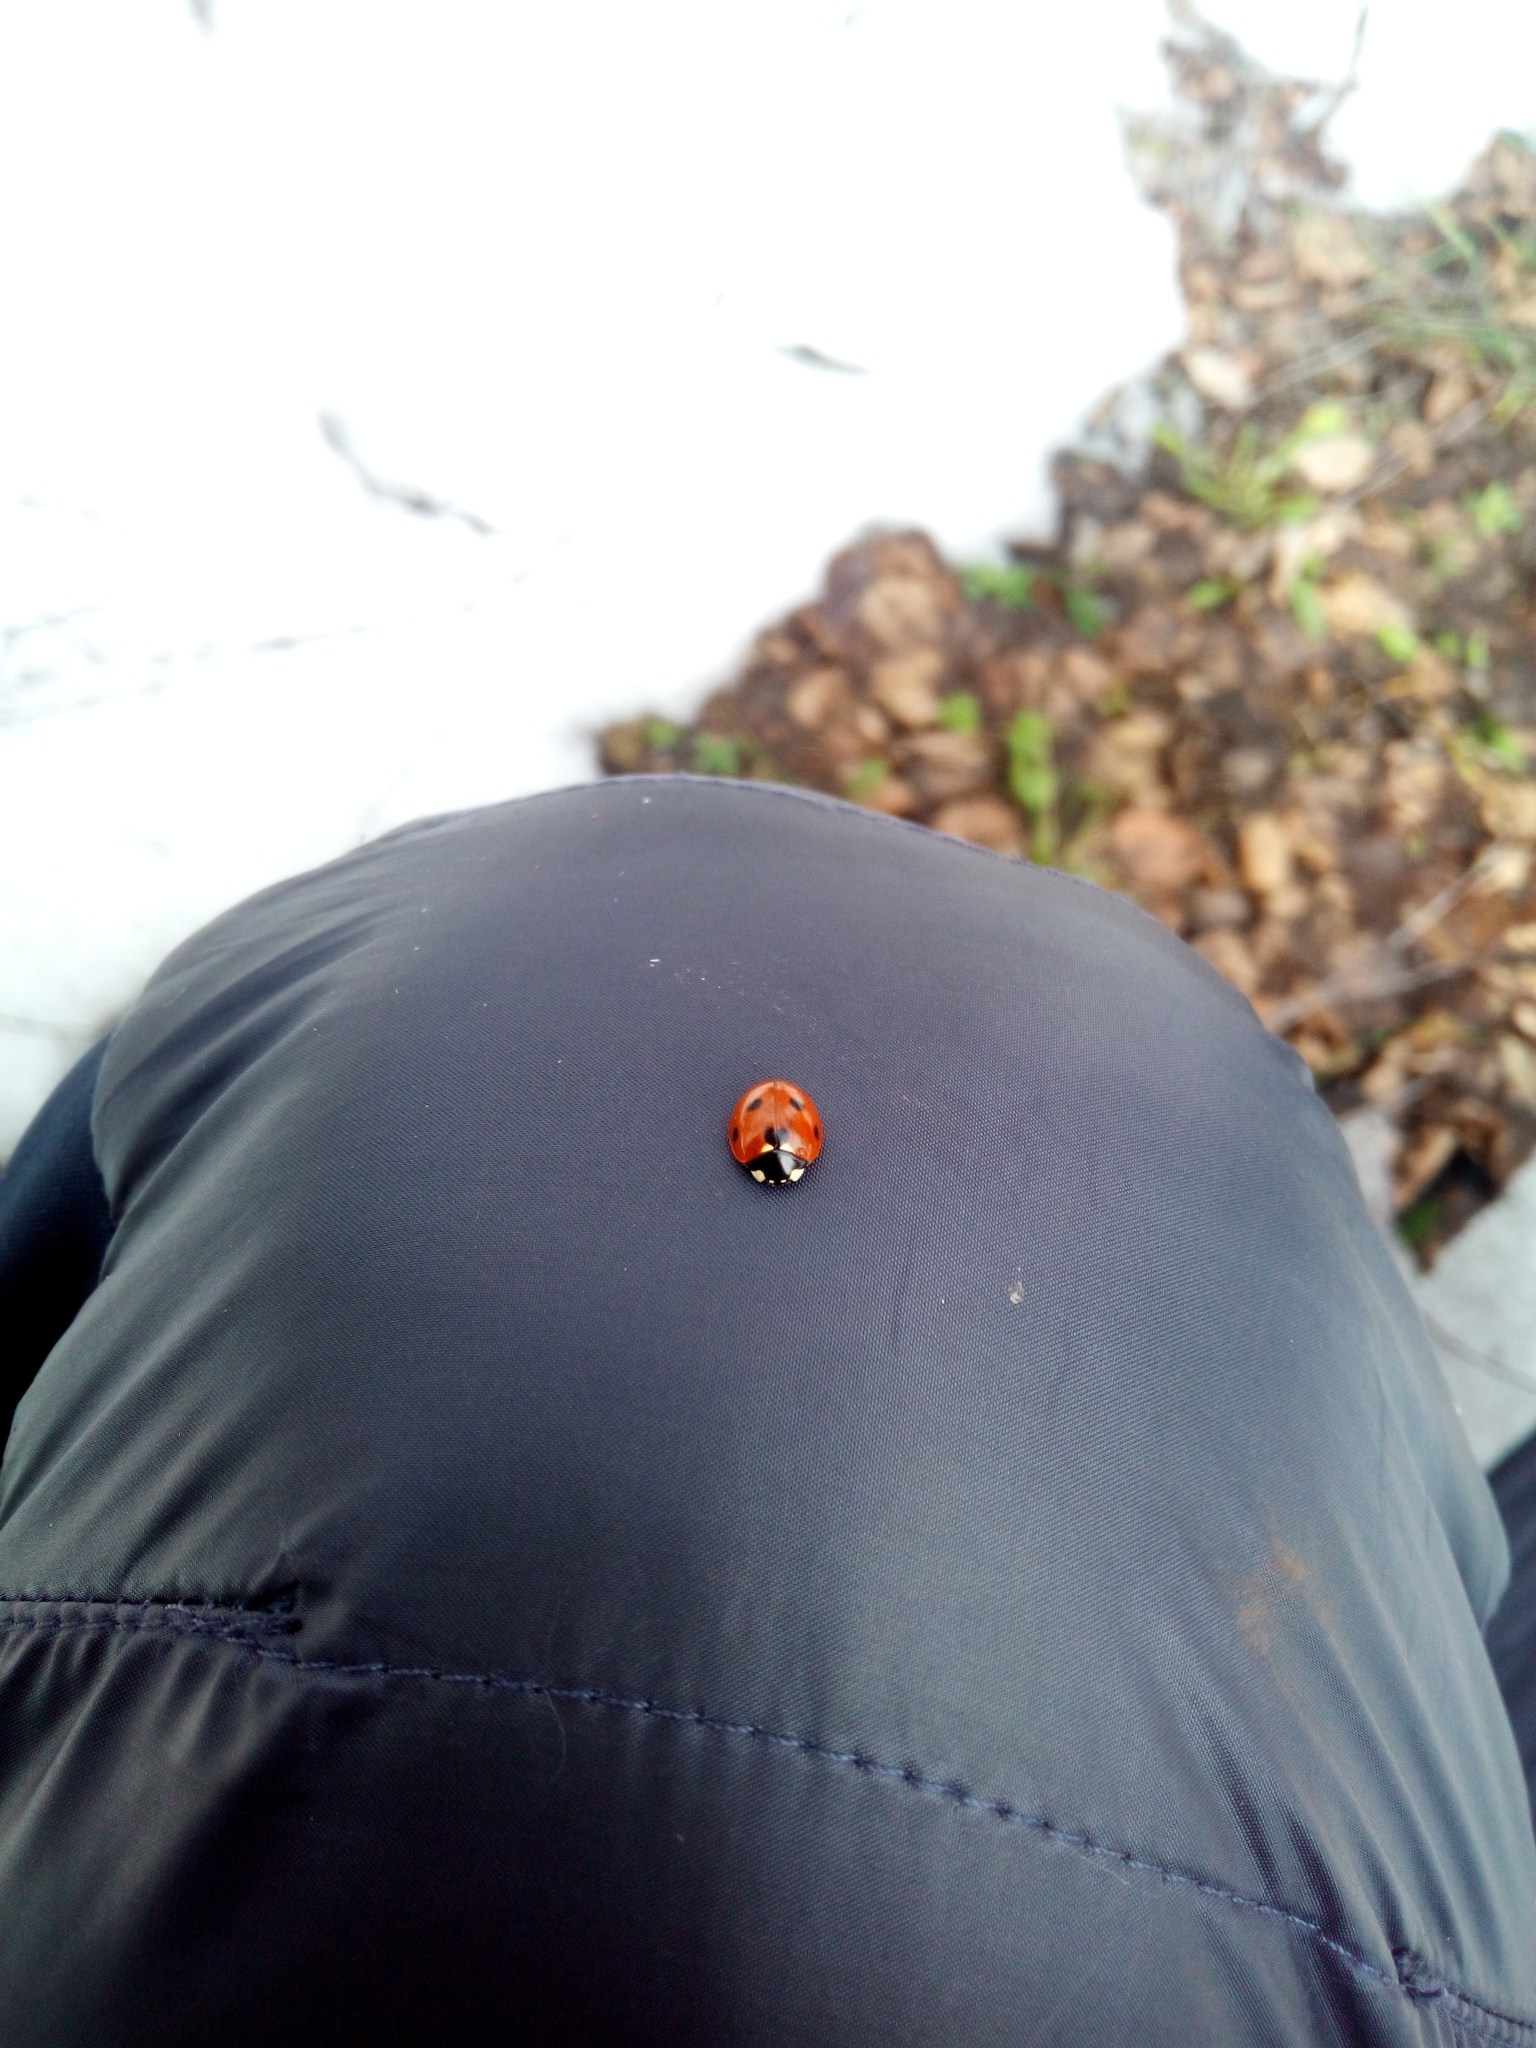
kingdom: Animalia
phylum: Arthropoda
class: Insecta
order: Coleoptera
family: Coccinellidae
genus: Coccinella
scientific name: Coccinella septempunctata
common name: Sevenspotted lady beetle
